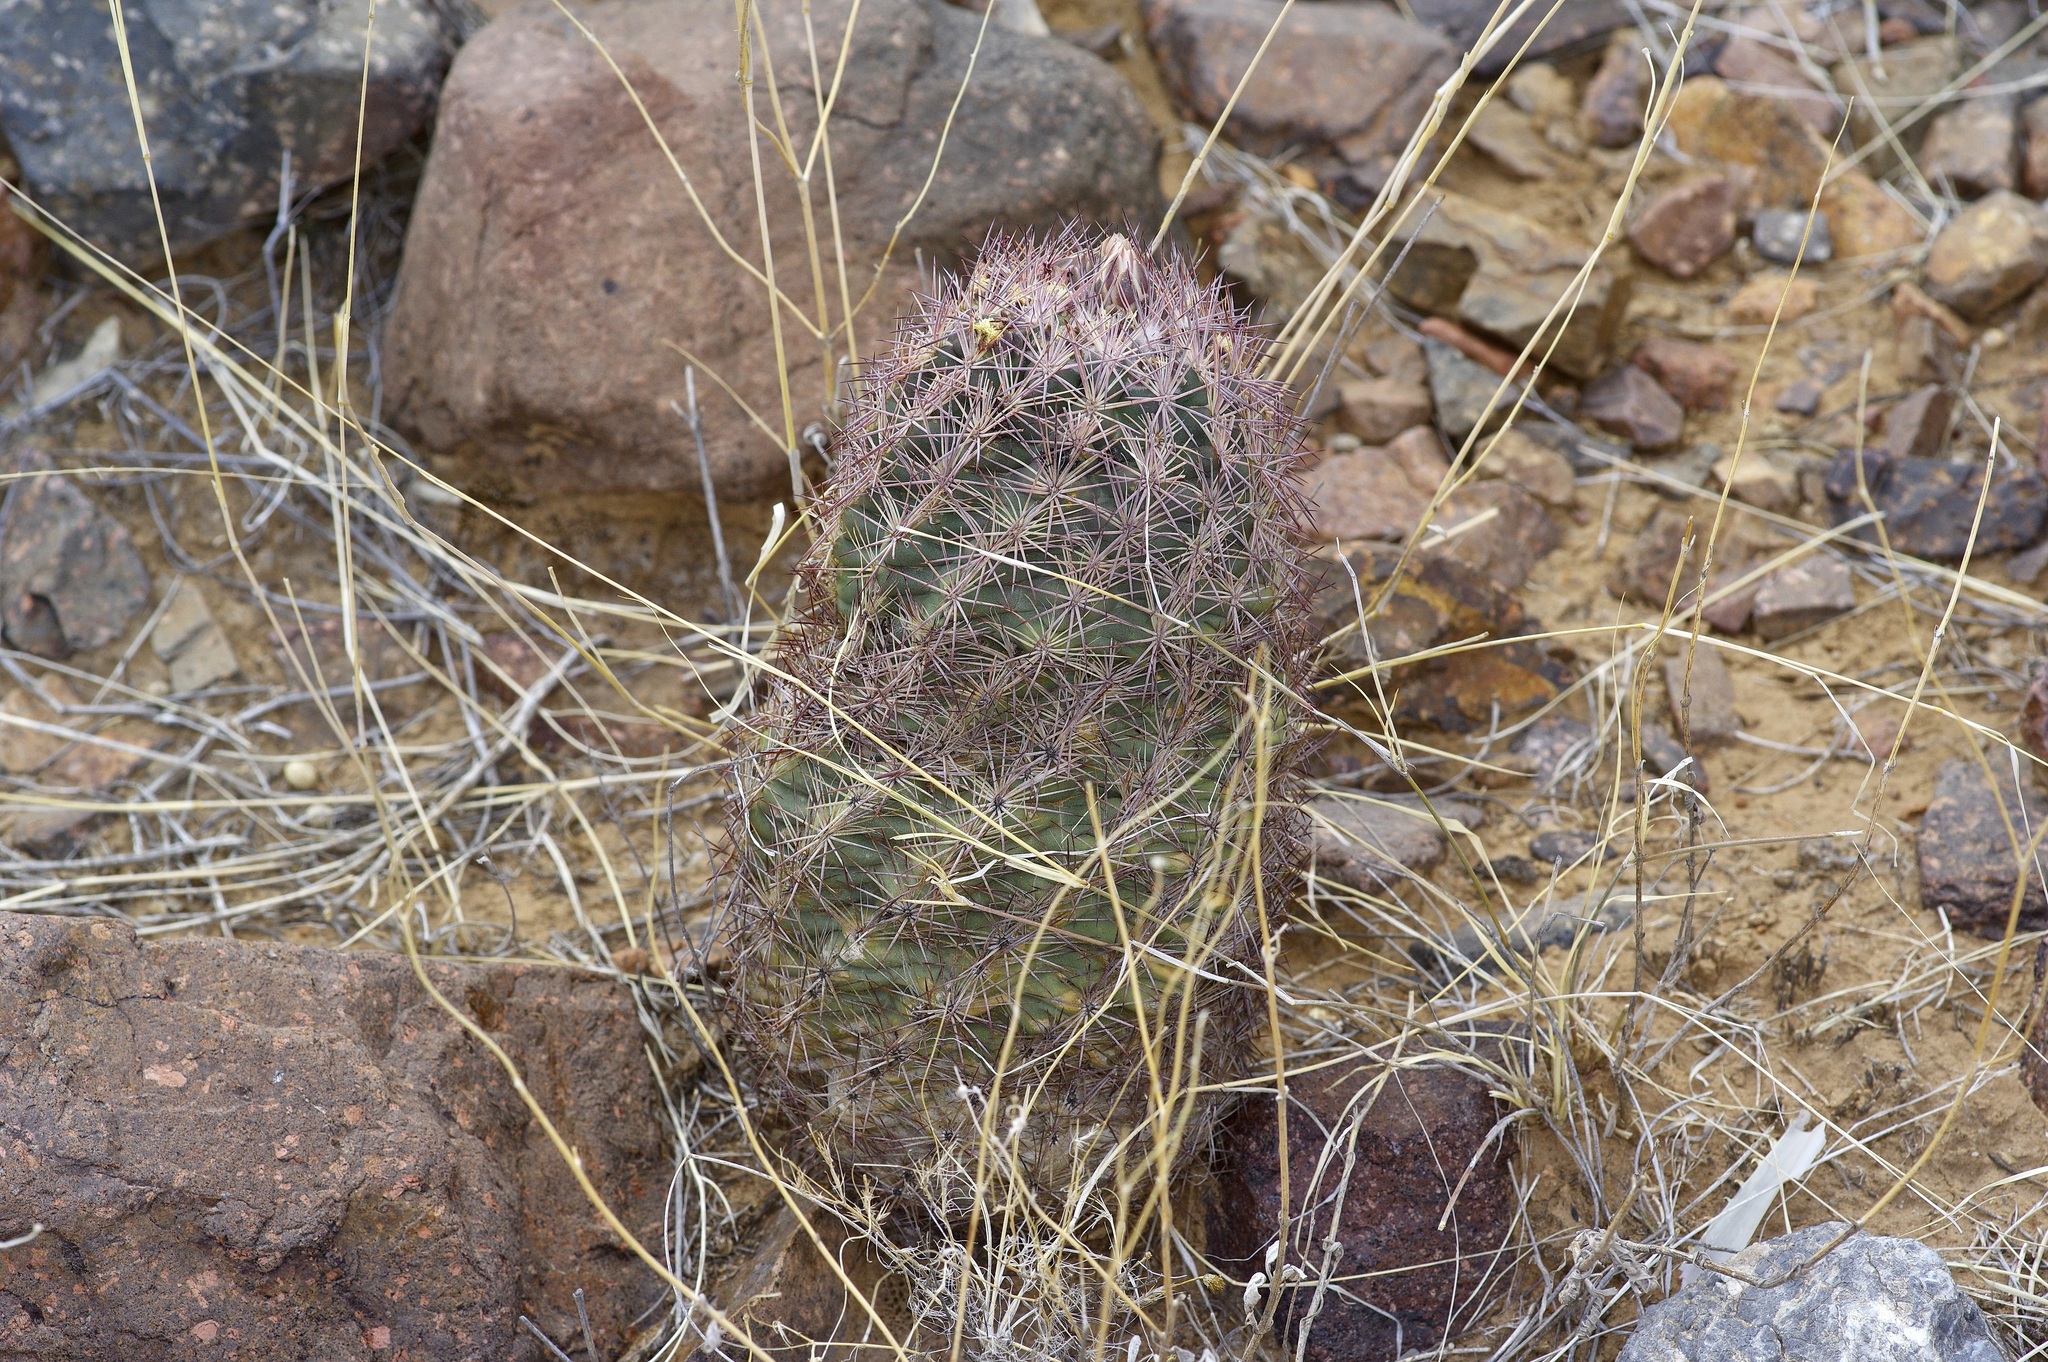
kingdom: Plantae
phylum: Tracheophyta
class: Magnoliopsida
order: Caryophyllales
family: Cactaceae
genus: Sclerocactus
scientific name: Sclerocactus intertextus
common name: White fish-hook cactus
